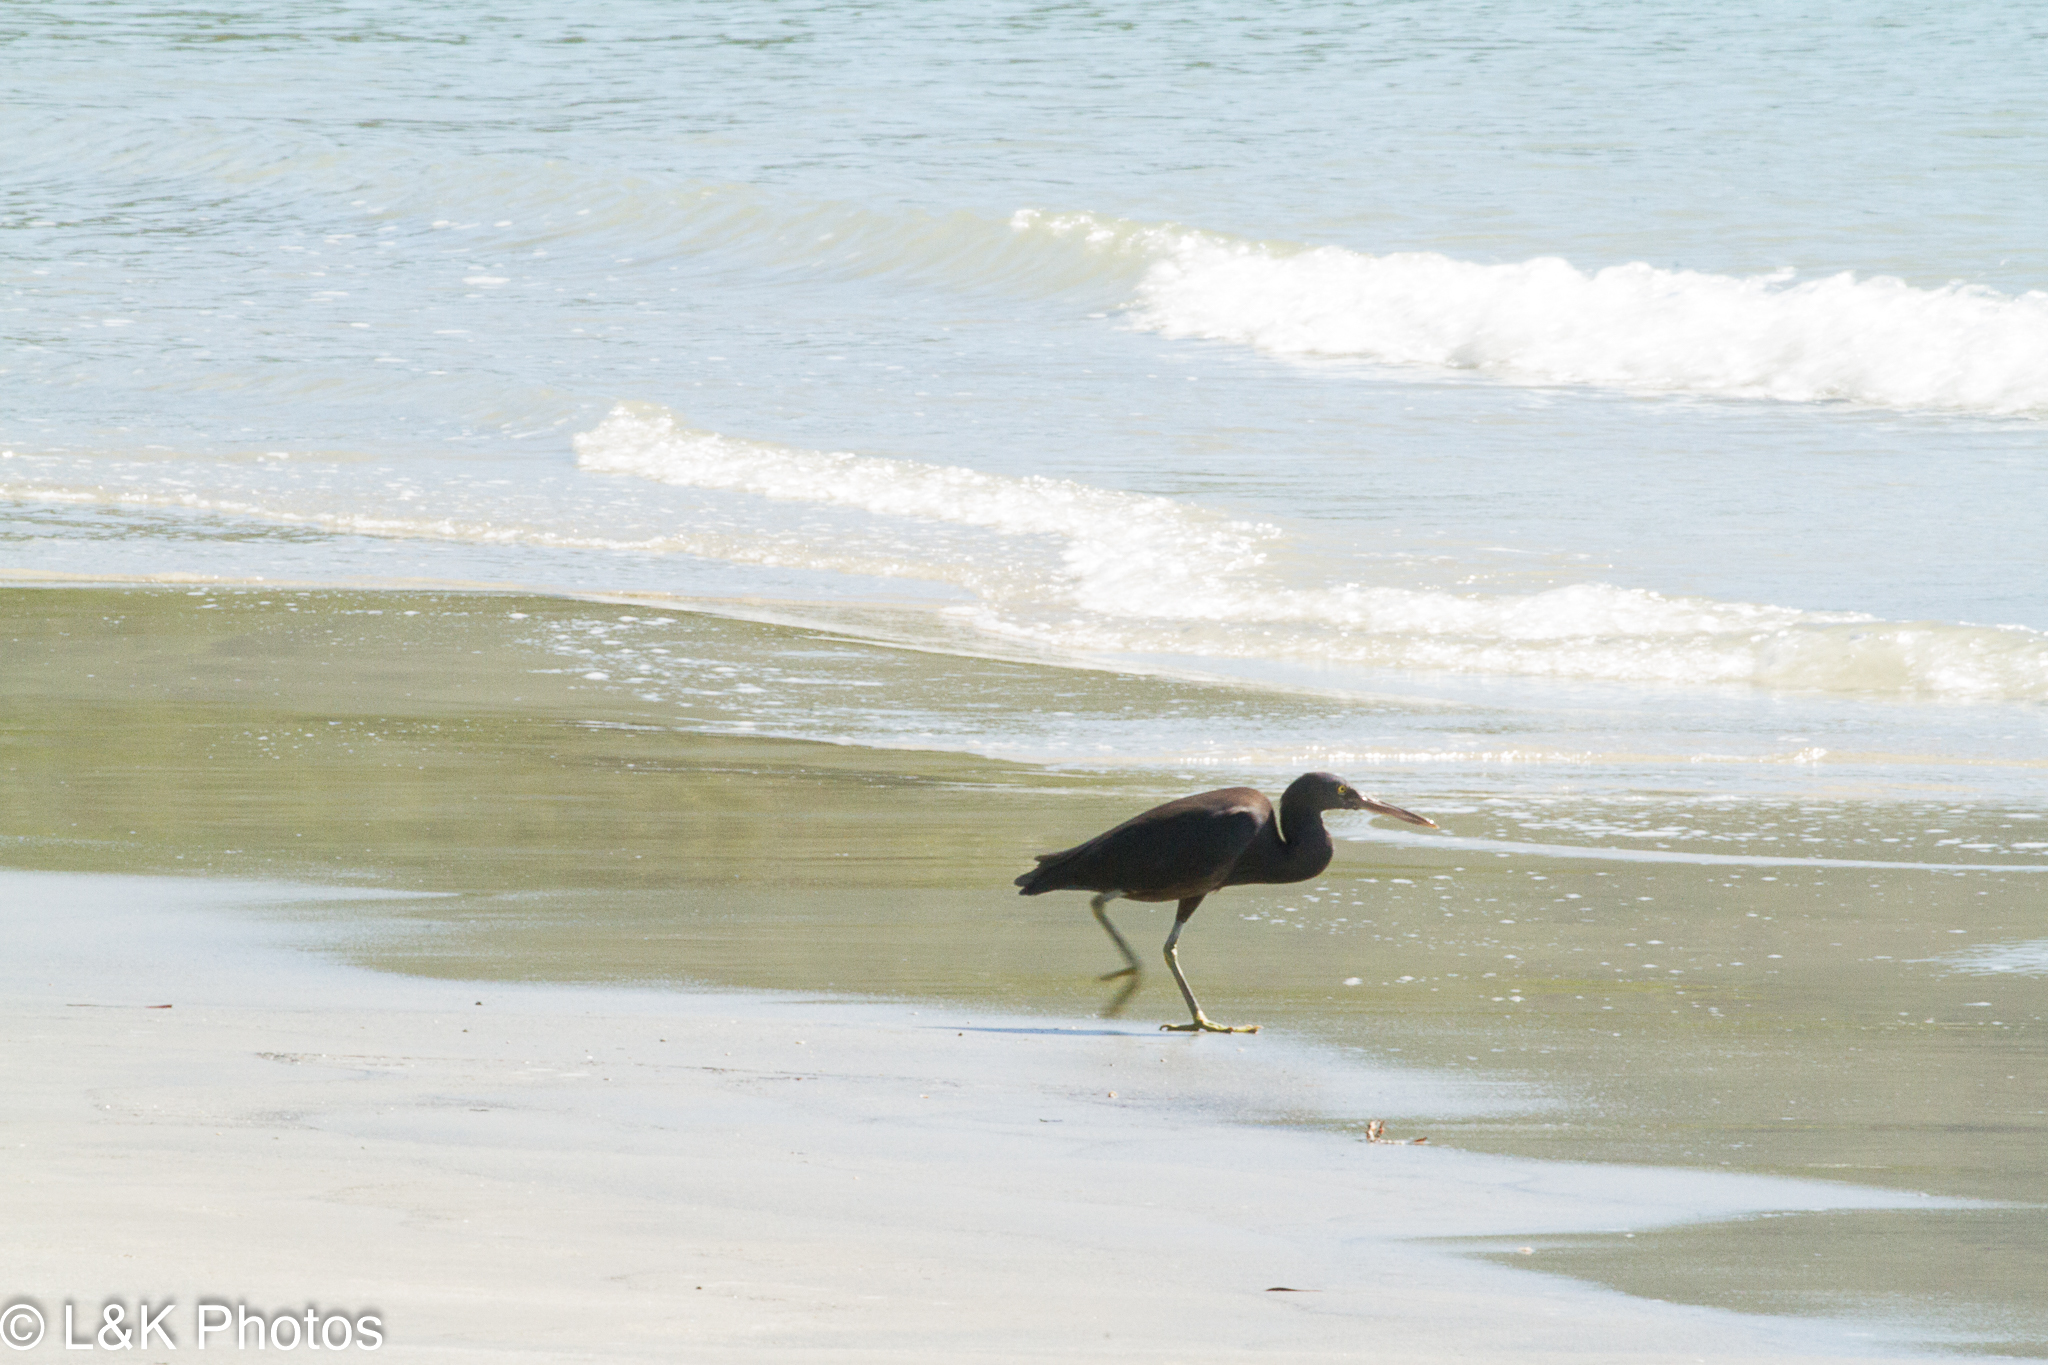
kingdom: Animalia
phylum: Chordata
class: Aves
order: Pelecaniformes
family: Ardeidae
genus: Egretta
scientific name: Egretta sacra
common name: Pacific reef heron
